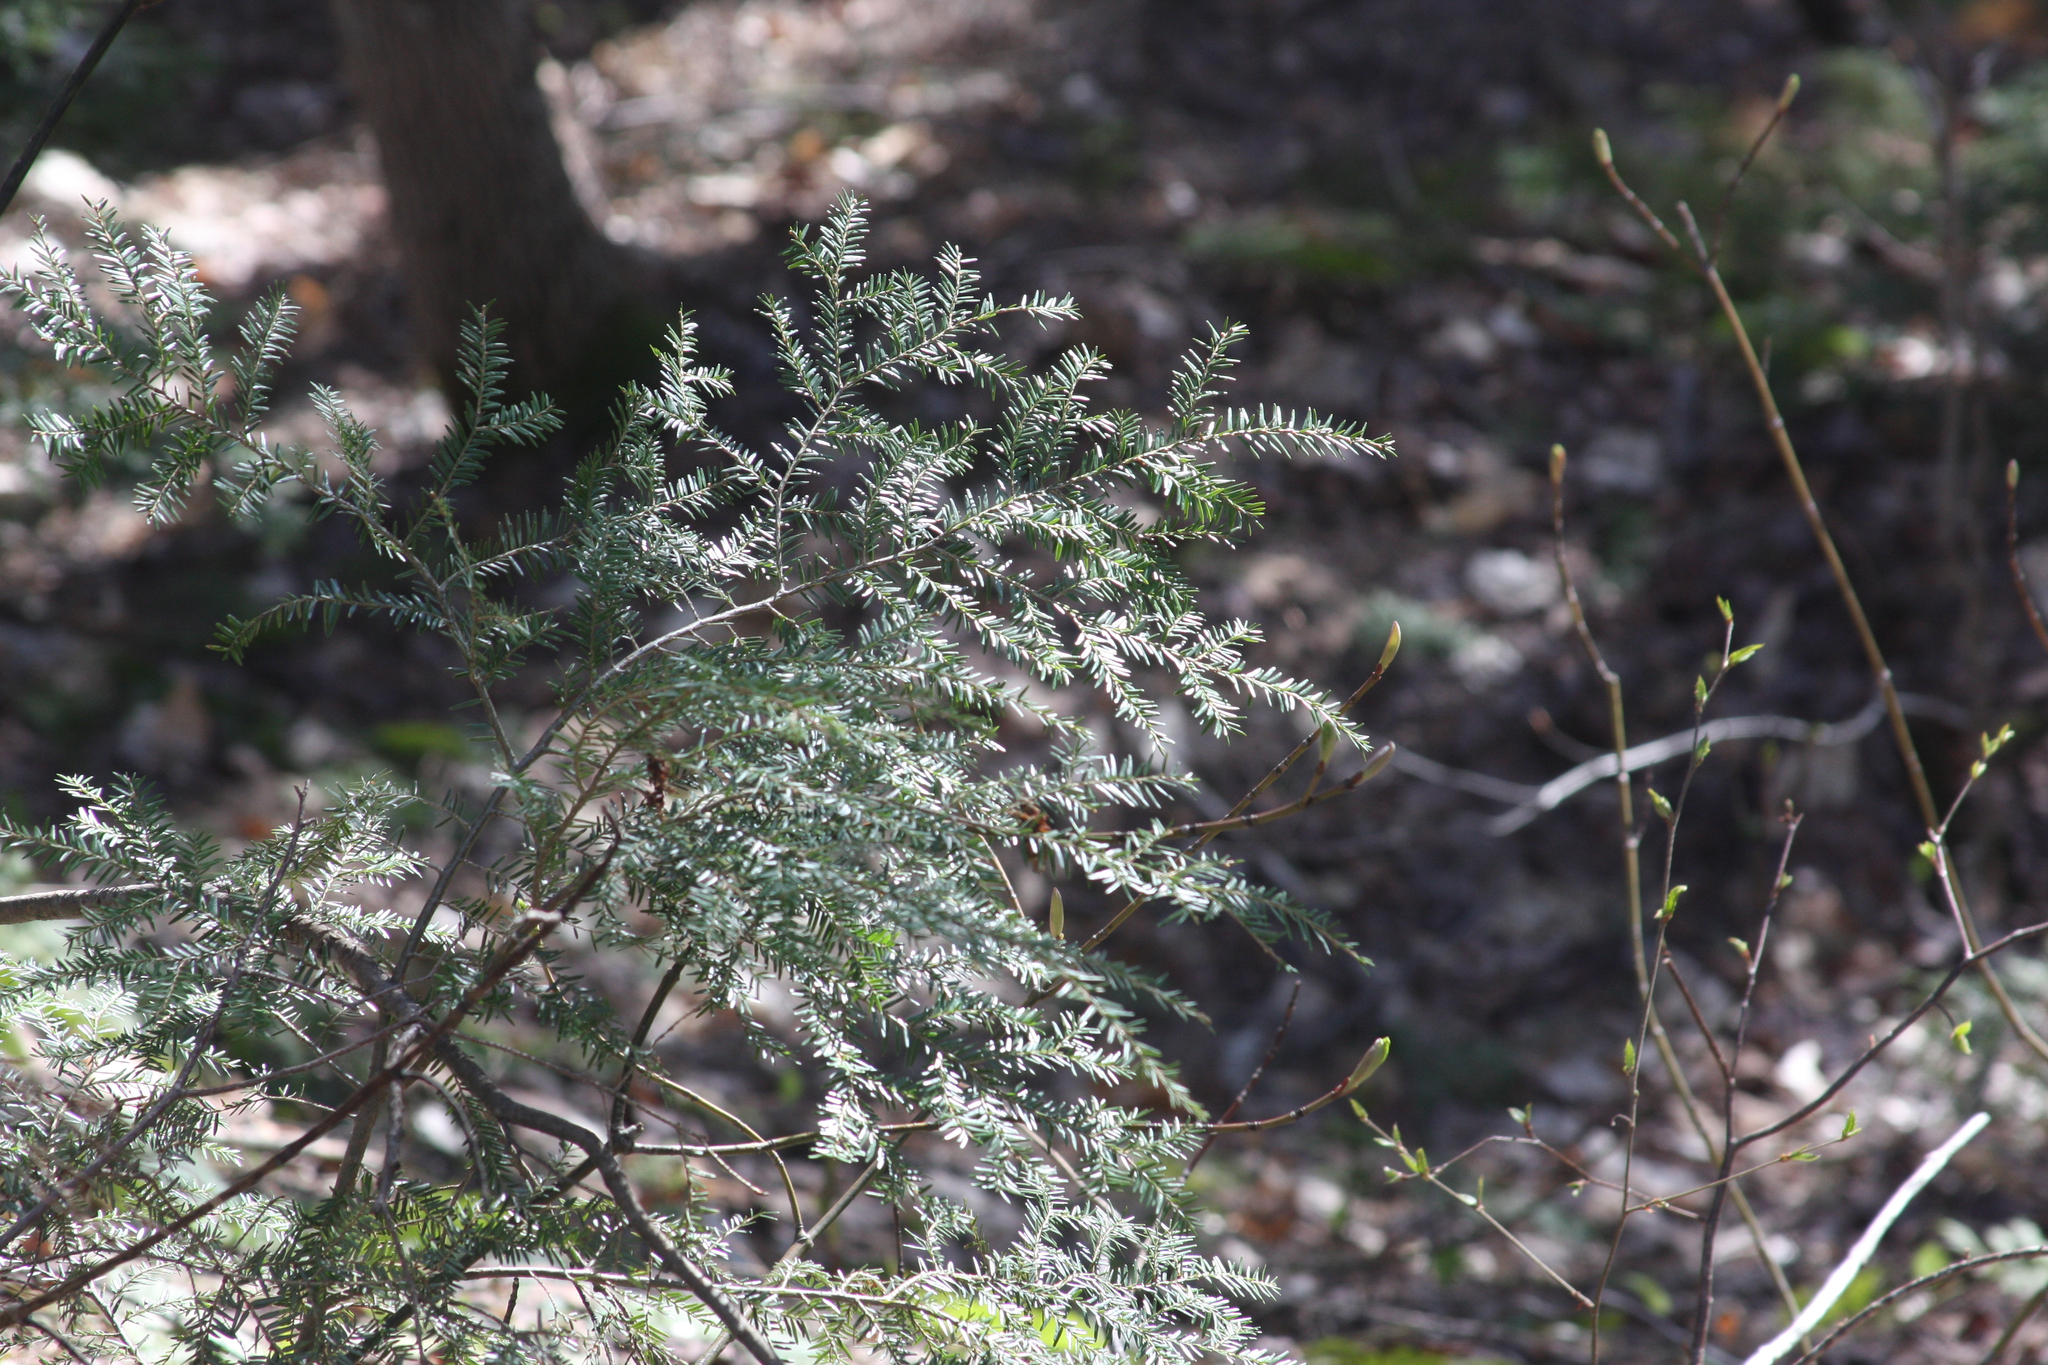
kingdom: Plantae
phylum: Tracheophyta
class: Pinopsida
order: Pinales
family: Pinaceae
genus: Tsuga
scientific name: Tsuga canadensis
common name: Eastern hemlock
